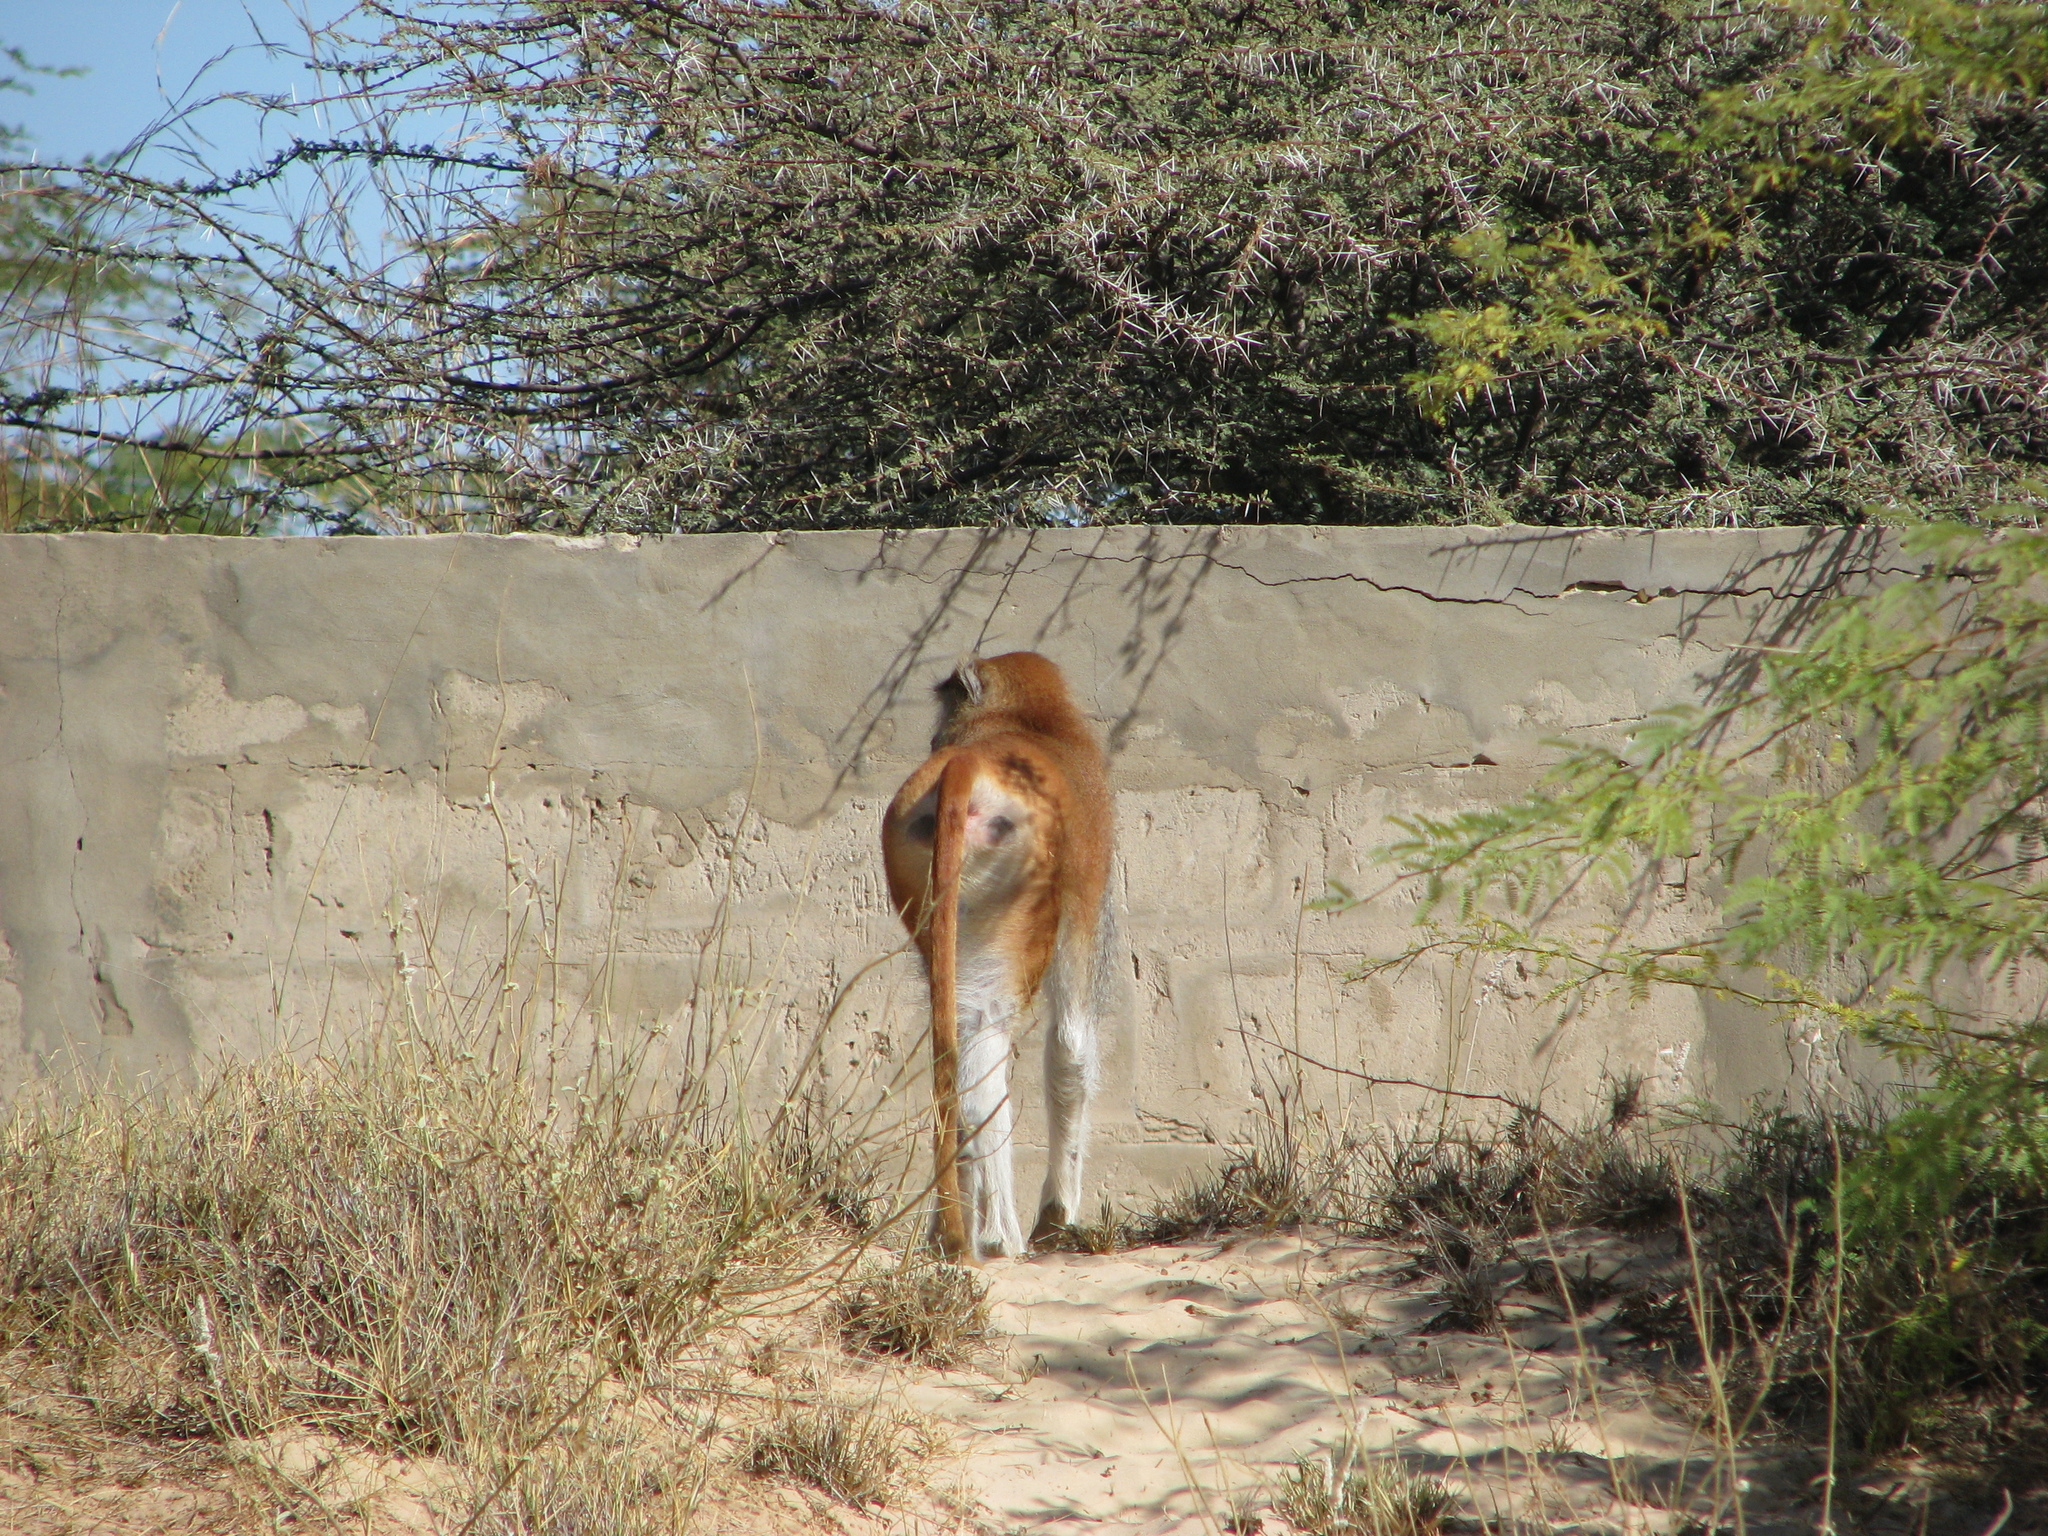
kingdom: Animalia
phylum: Chordata
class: Mammalia
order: Primates
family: Cercopithecidae
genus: Erythrocebus
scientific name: Erythrocebus patas
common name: Patas monkey
